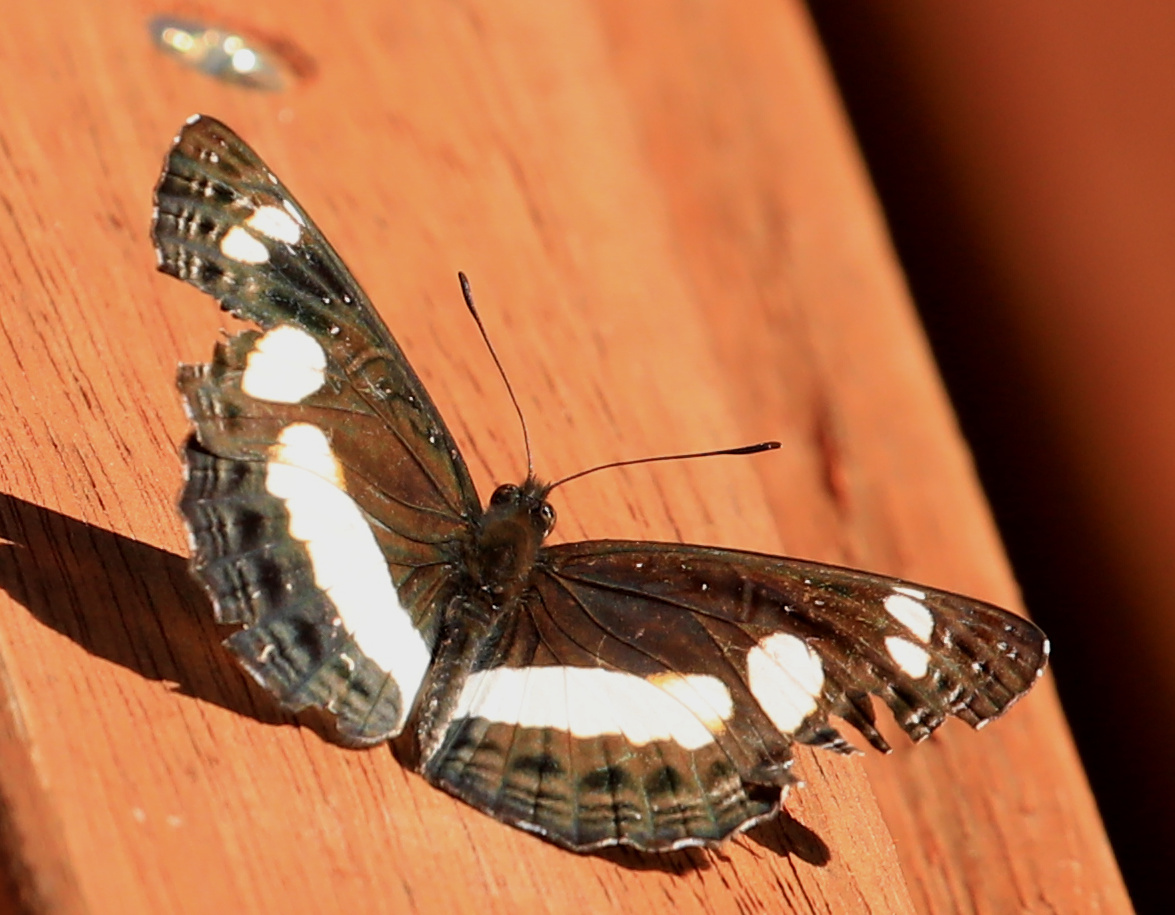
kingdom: Animalia
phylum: Arthropoda
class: Insecta
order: Lepidoptera
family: Nymphalidae
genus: Neptis
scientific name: Neptis saclava
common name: Small spotted sailor
